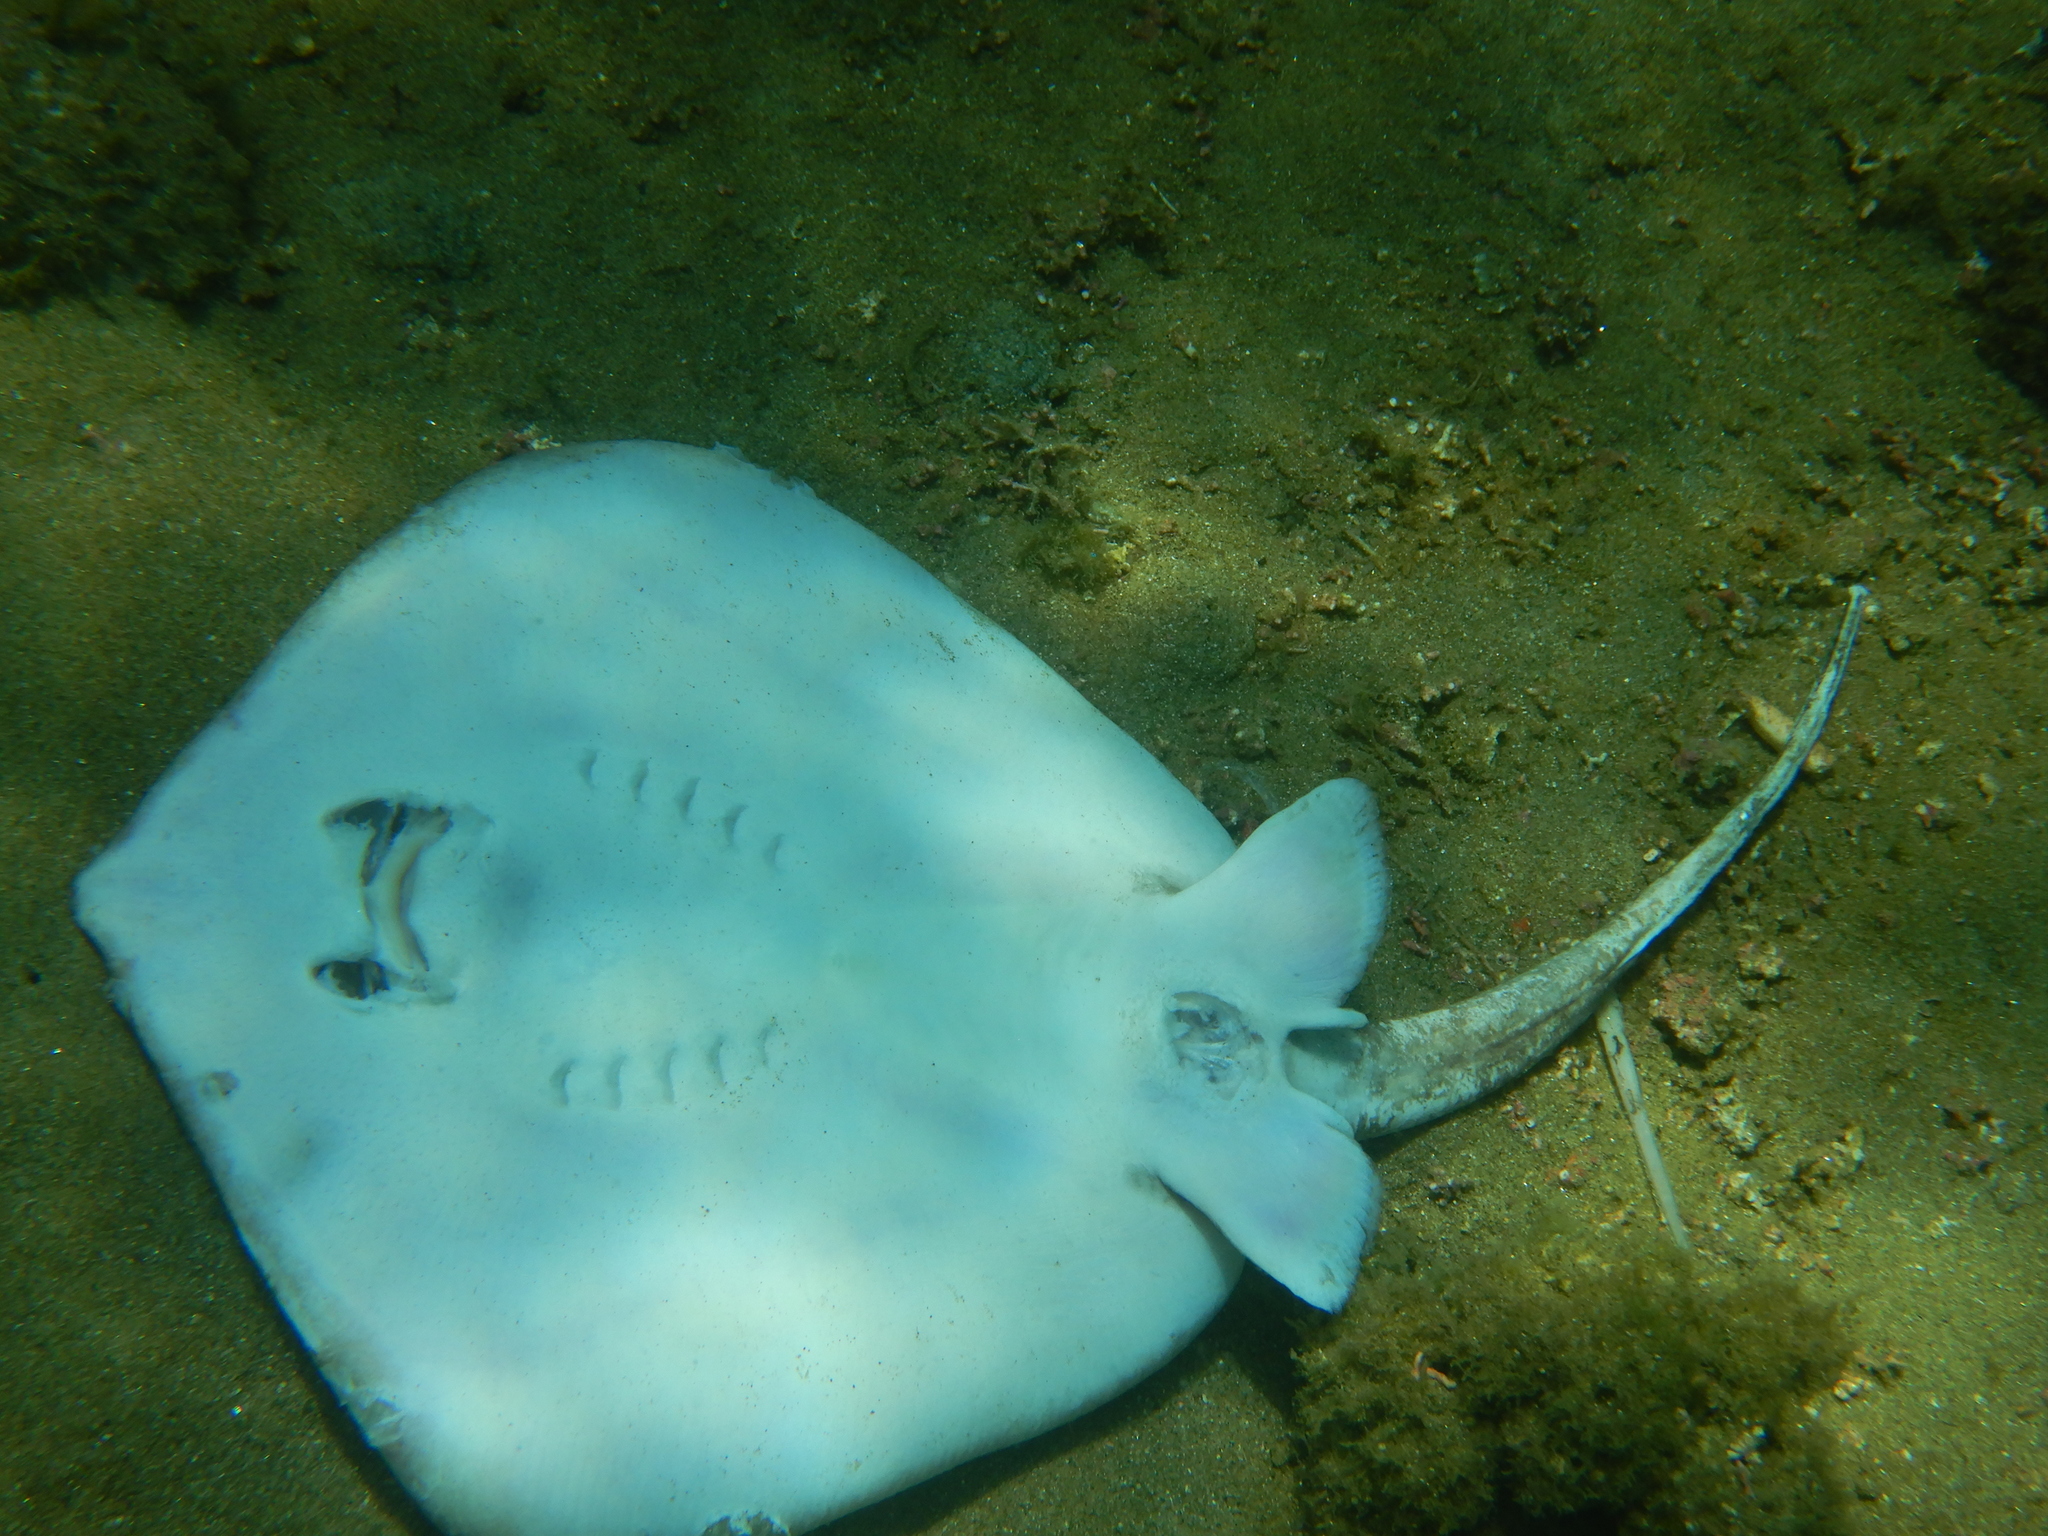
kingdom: Animalia
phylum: Chordata
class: Elasmobranchii
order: Myliobatiformes
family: Dasyatidae
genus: Dasyatis
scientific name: Dasyatis pastinaca
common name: Common stingray
